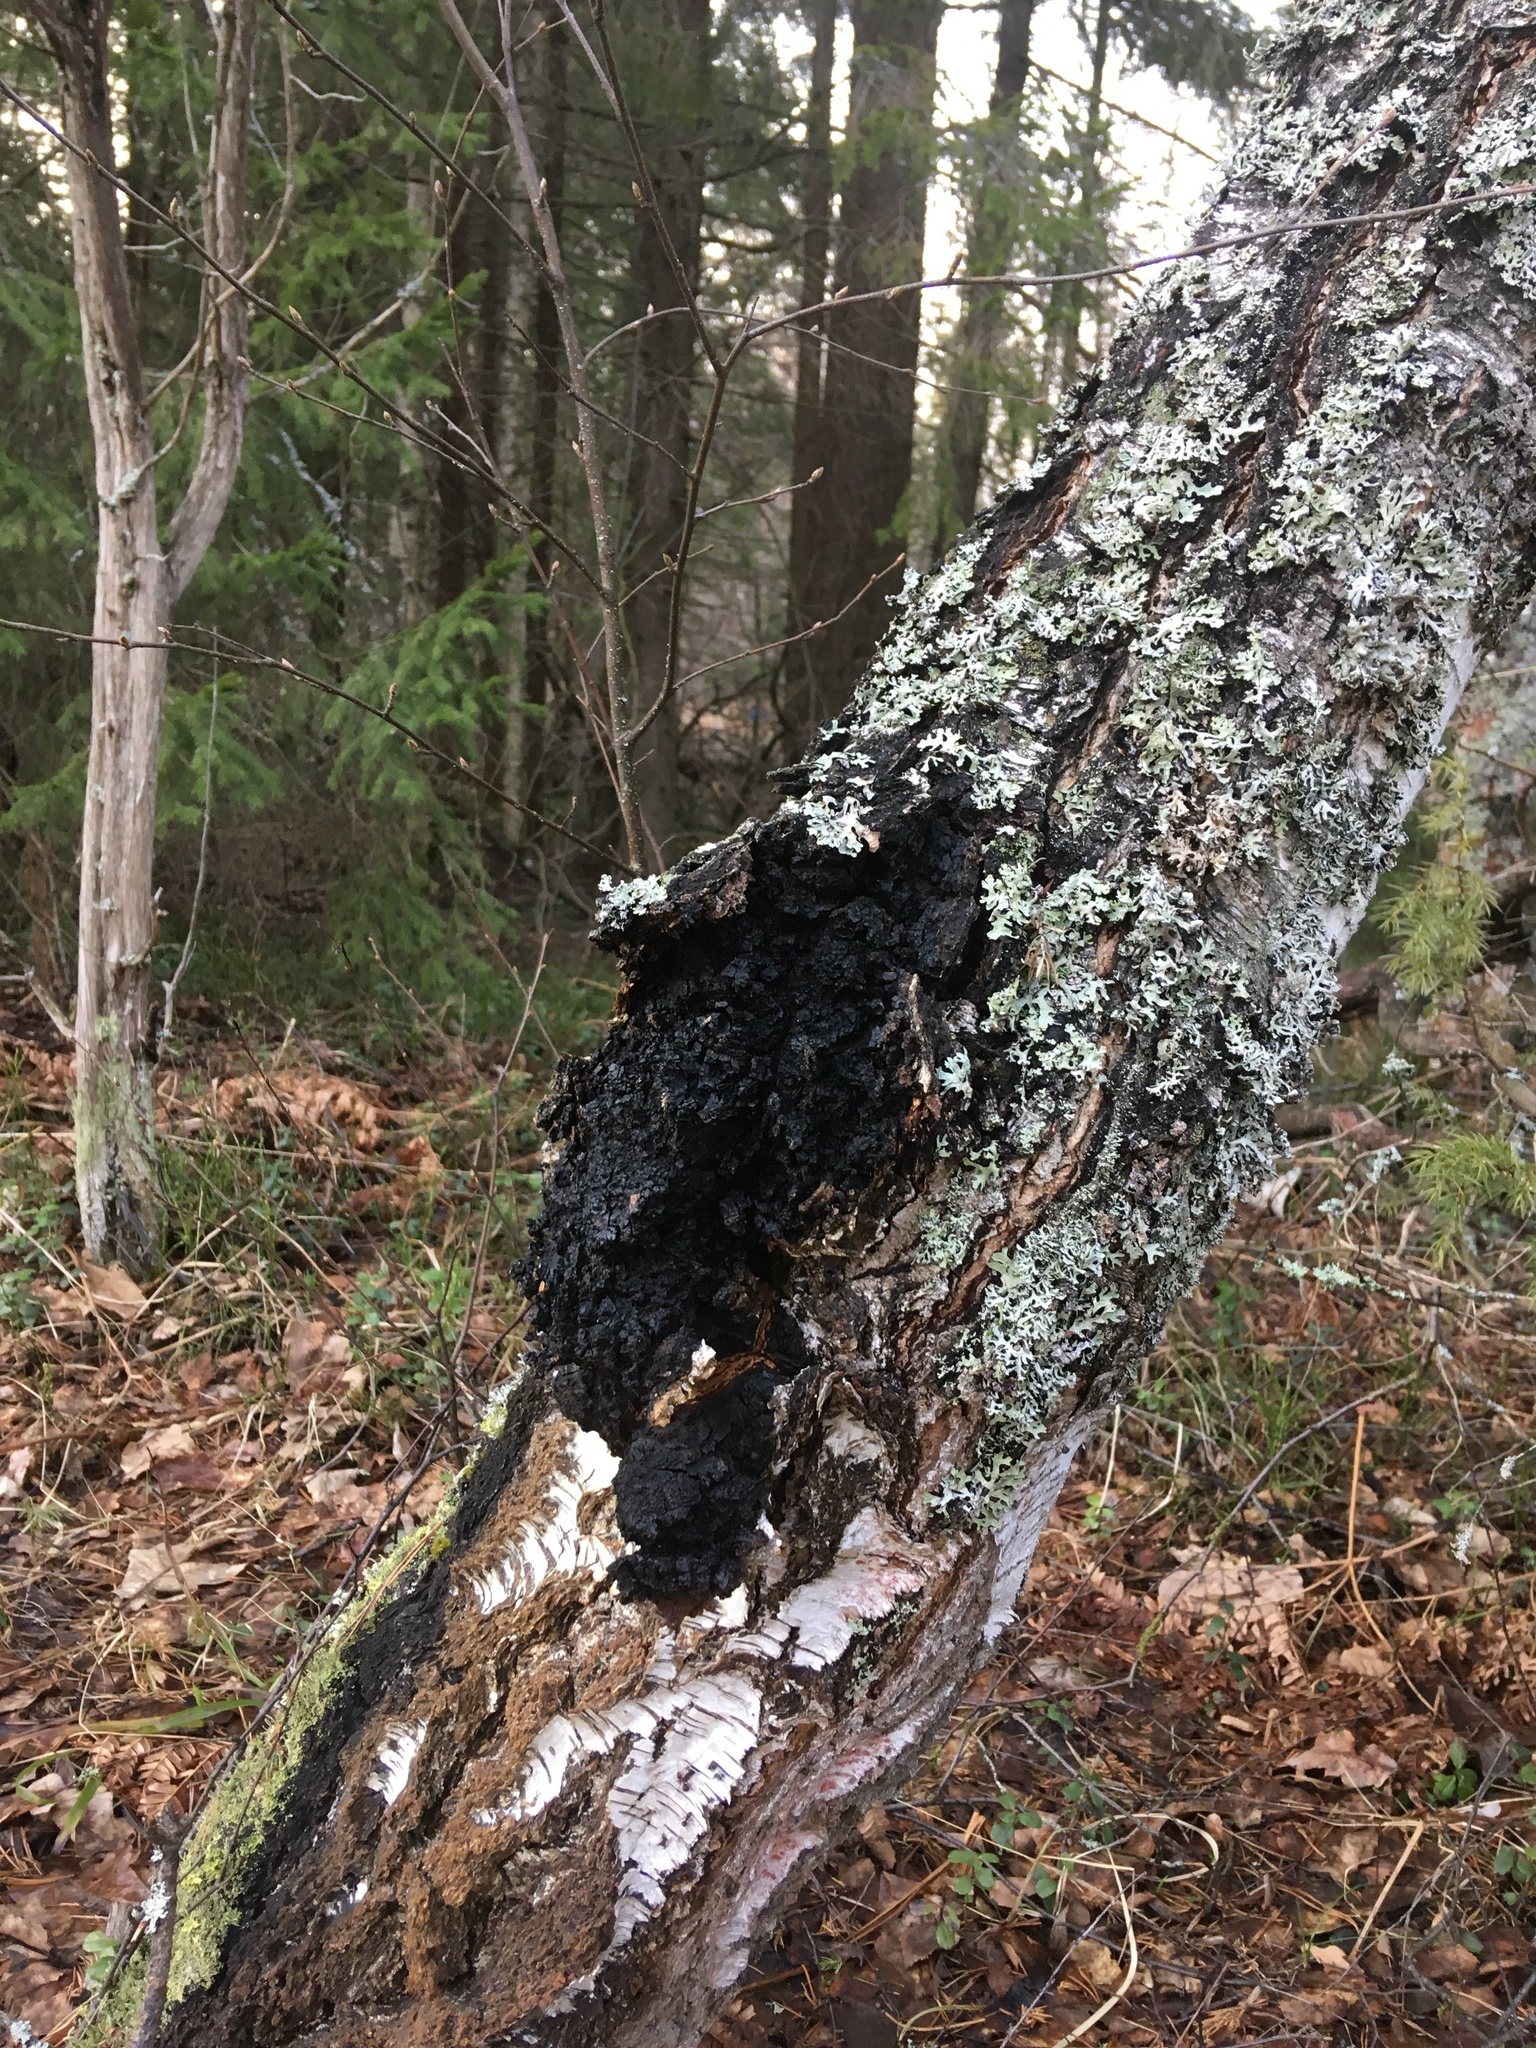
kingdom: Fungi
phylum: Basidiomycota
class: Agaricomycetes
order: Hymenochaetales
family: Hymenochaetaceae
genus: Inonotus
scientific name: Inonotus obliquus
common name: Chaga
